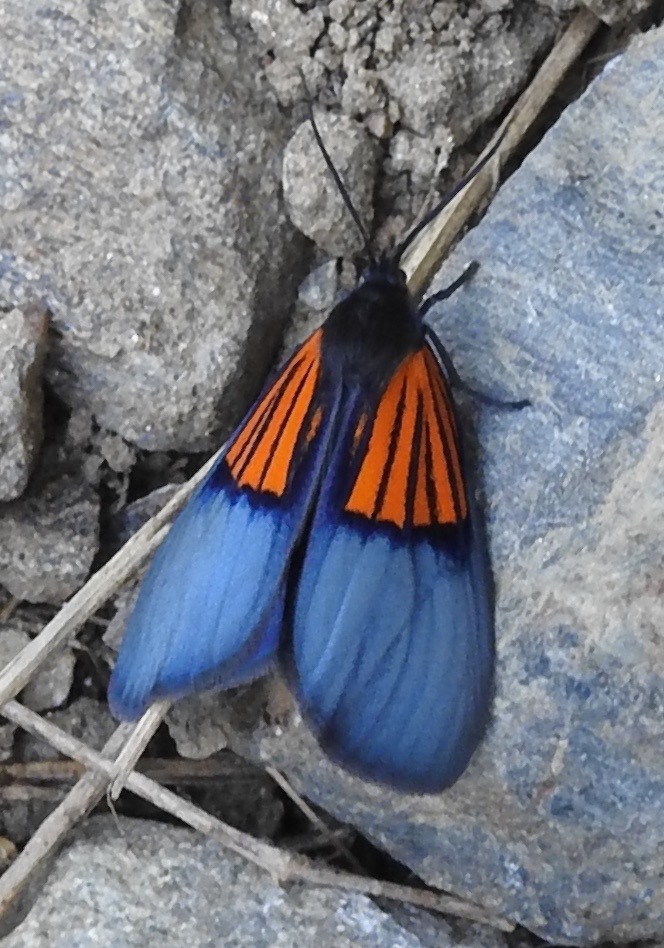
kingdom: Animalia
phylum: Arthropoda
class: Insecta
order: Lepidoptera
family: Notodontidae
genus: Scea
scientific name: Scea
